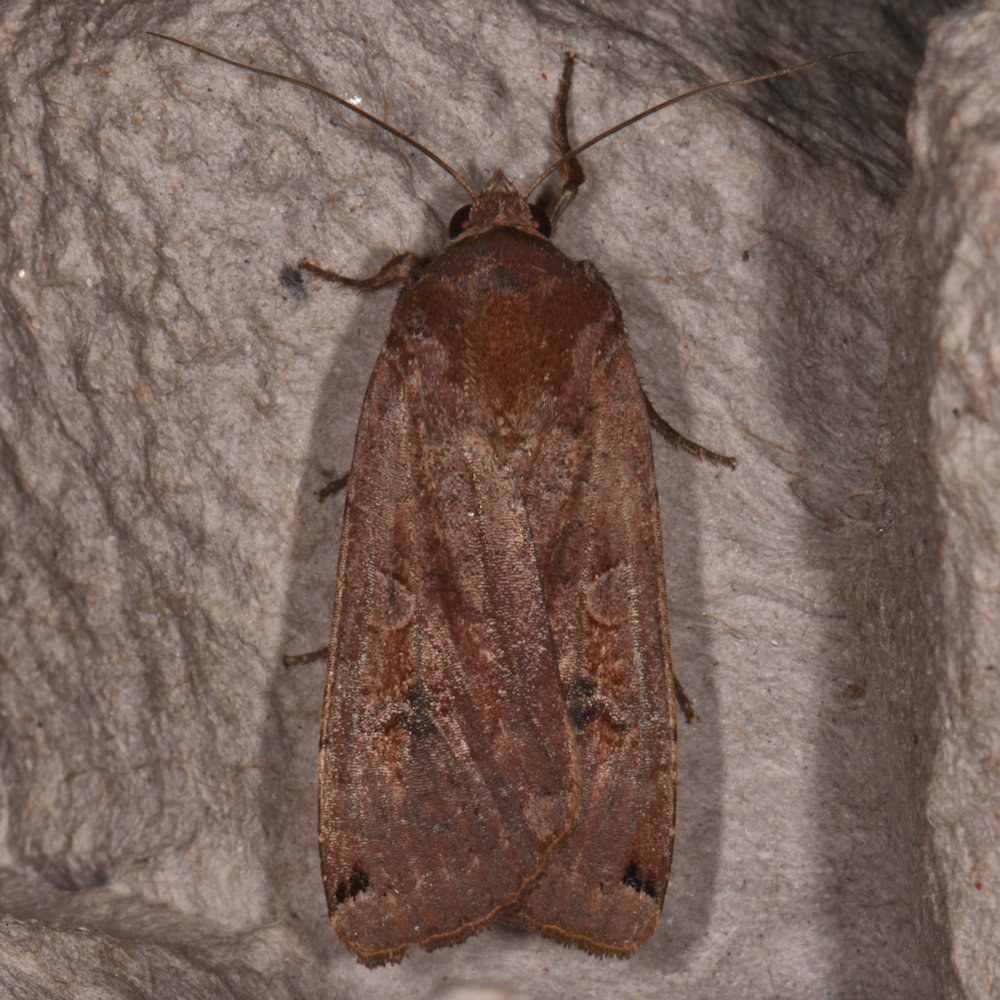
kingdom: Animalia
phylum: Arthropoda
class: Insecta
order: Lepidoptera
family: Noctuidae
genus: Noctua
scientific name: Noctua pronuba
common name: Large yellow underwing
